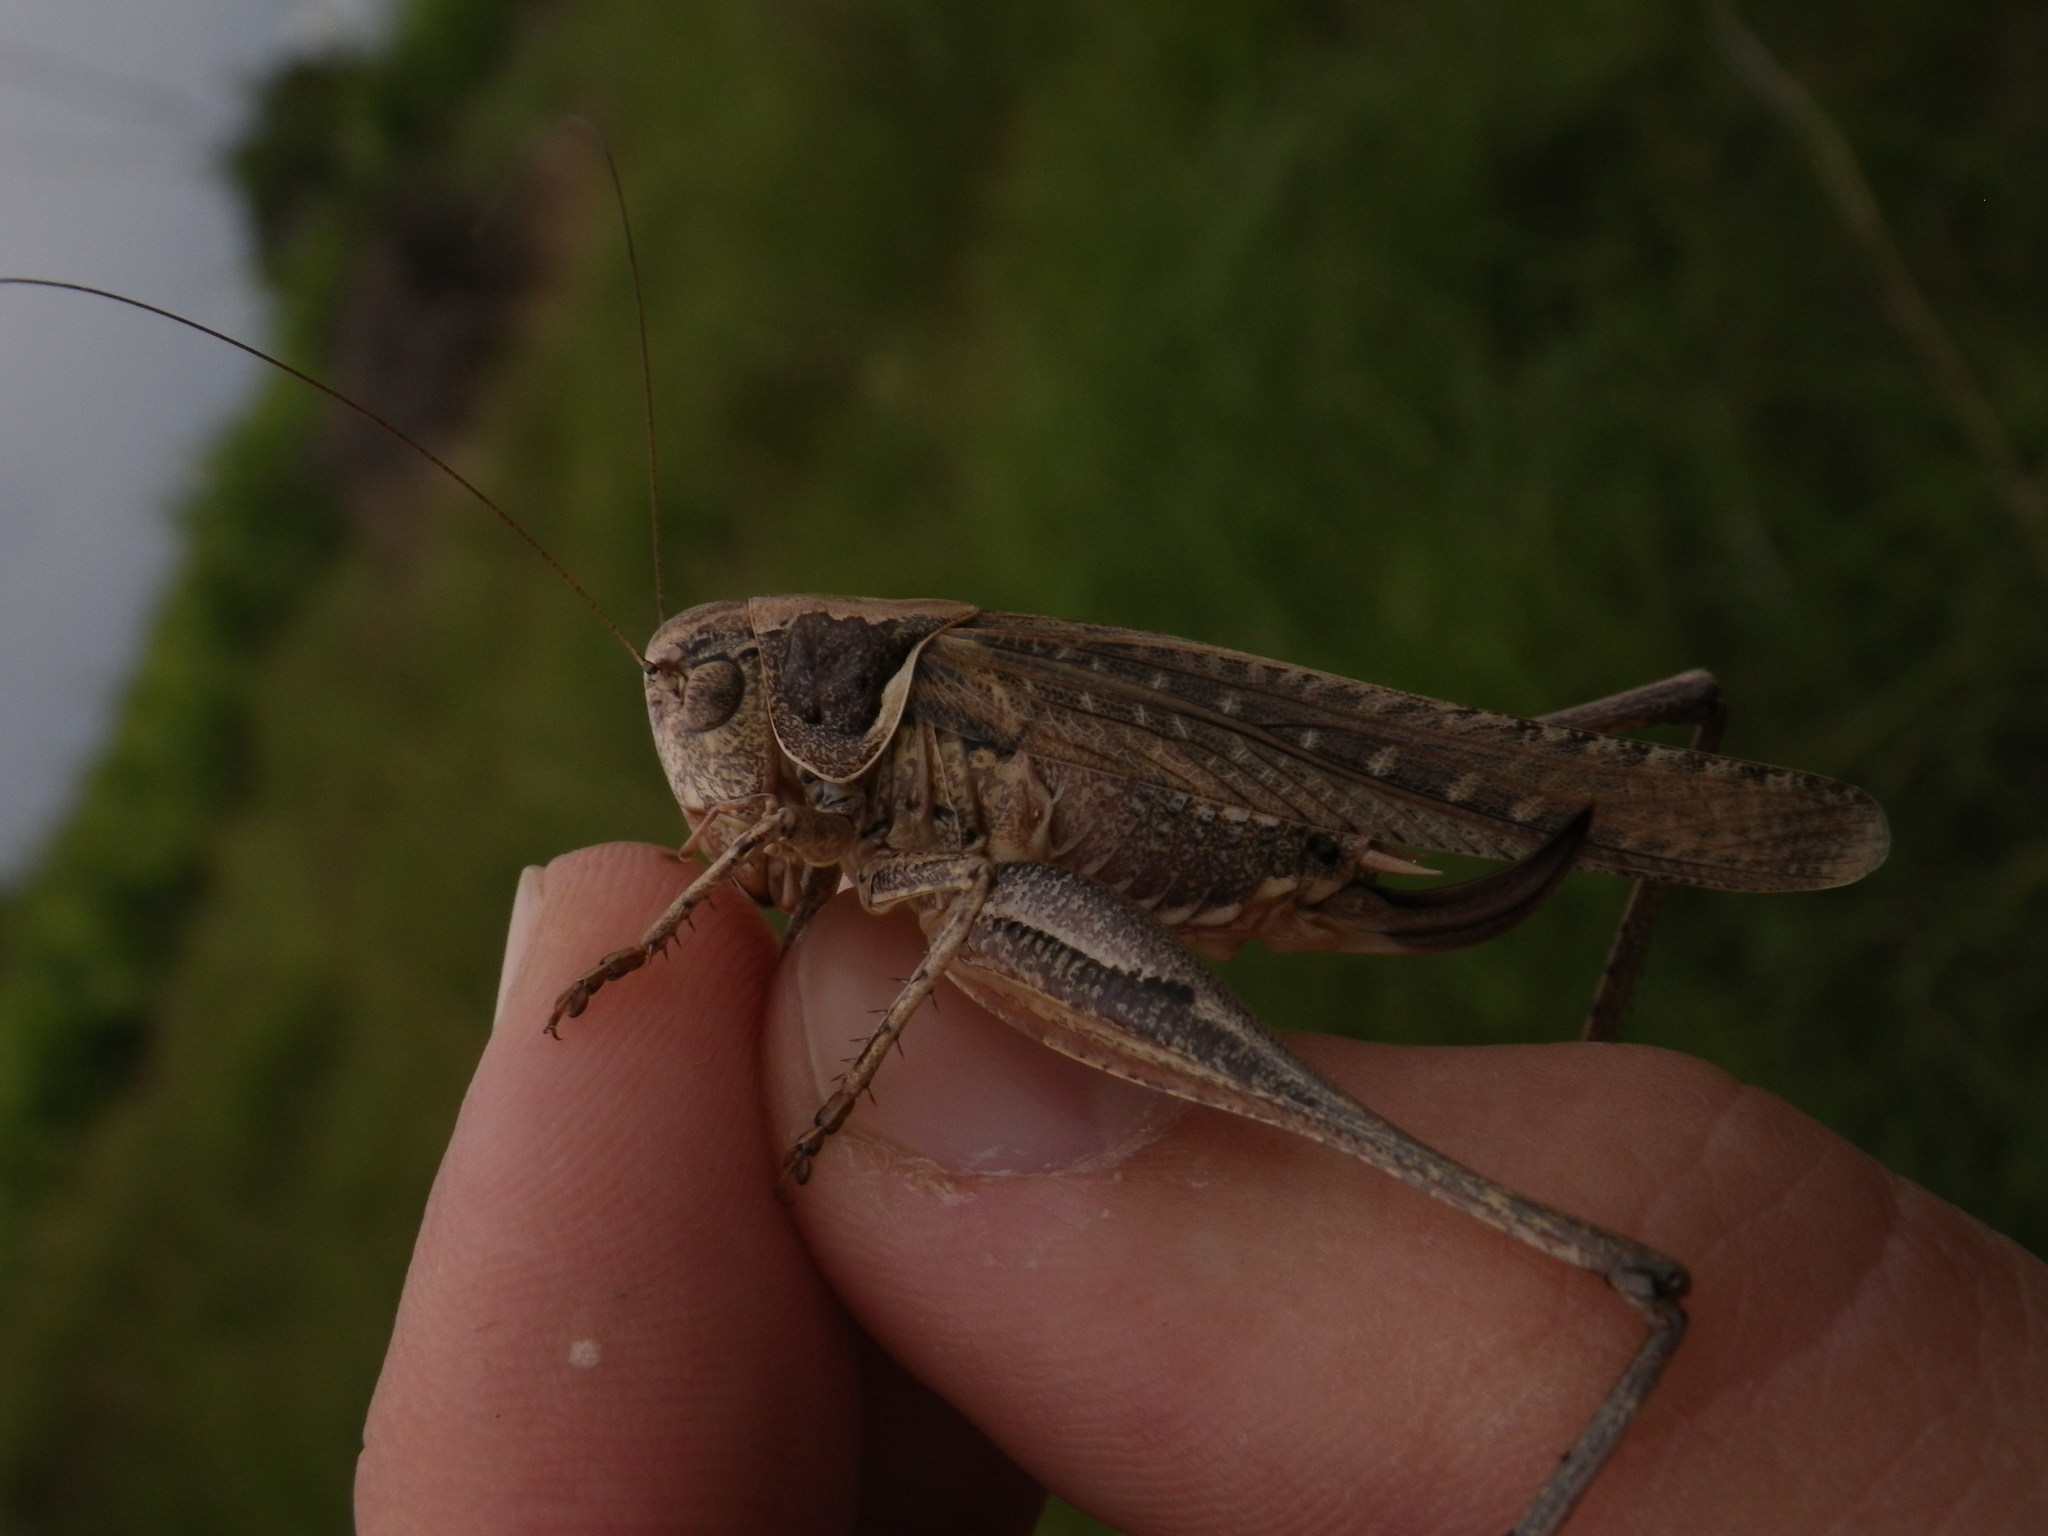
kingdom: Animalia
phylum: Arthropoda
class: Insecta
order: Orthoptera
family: Tettigoniidae
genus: Platycleis
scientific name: Platycleis falx
